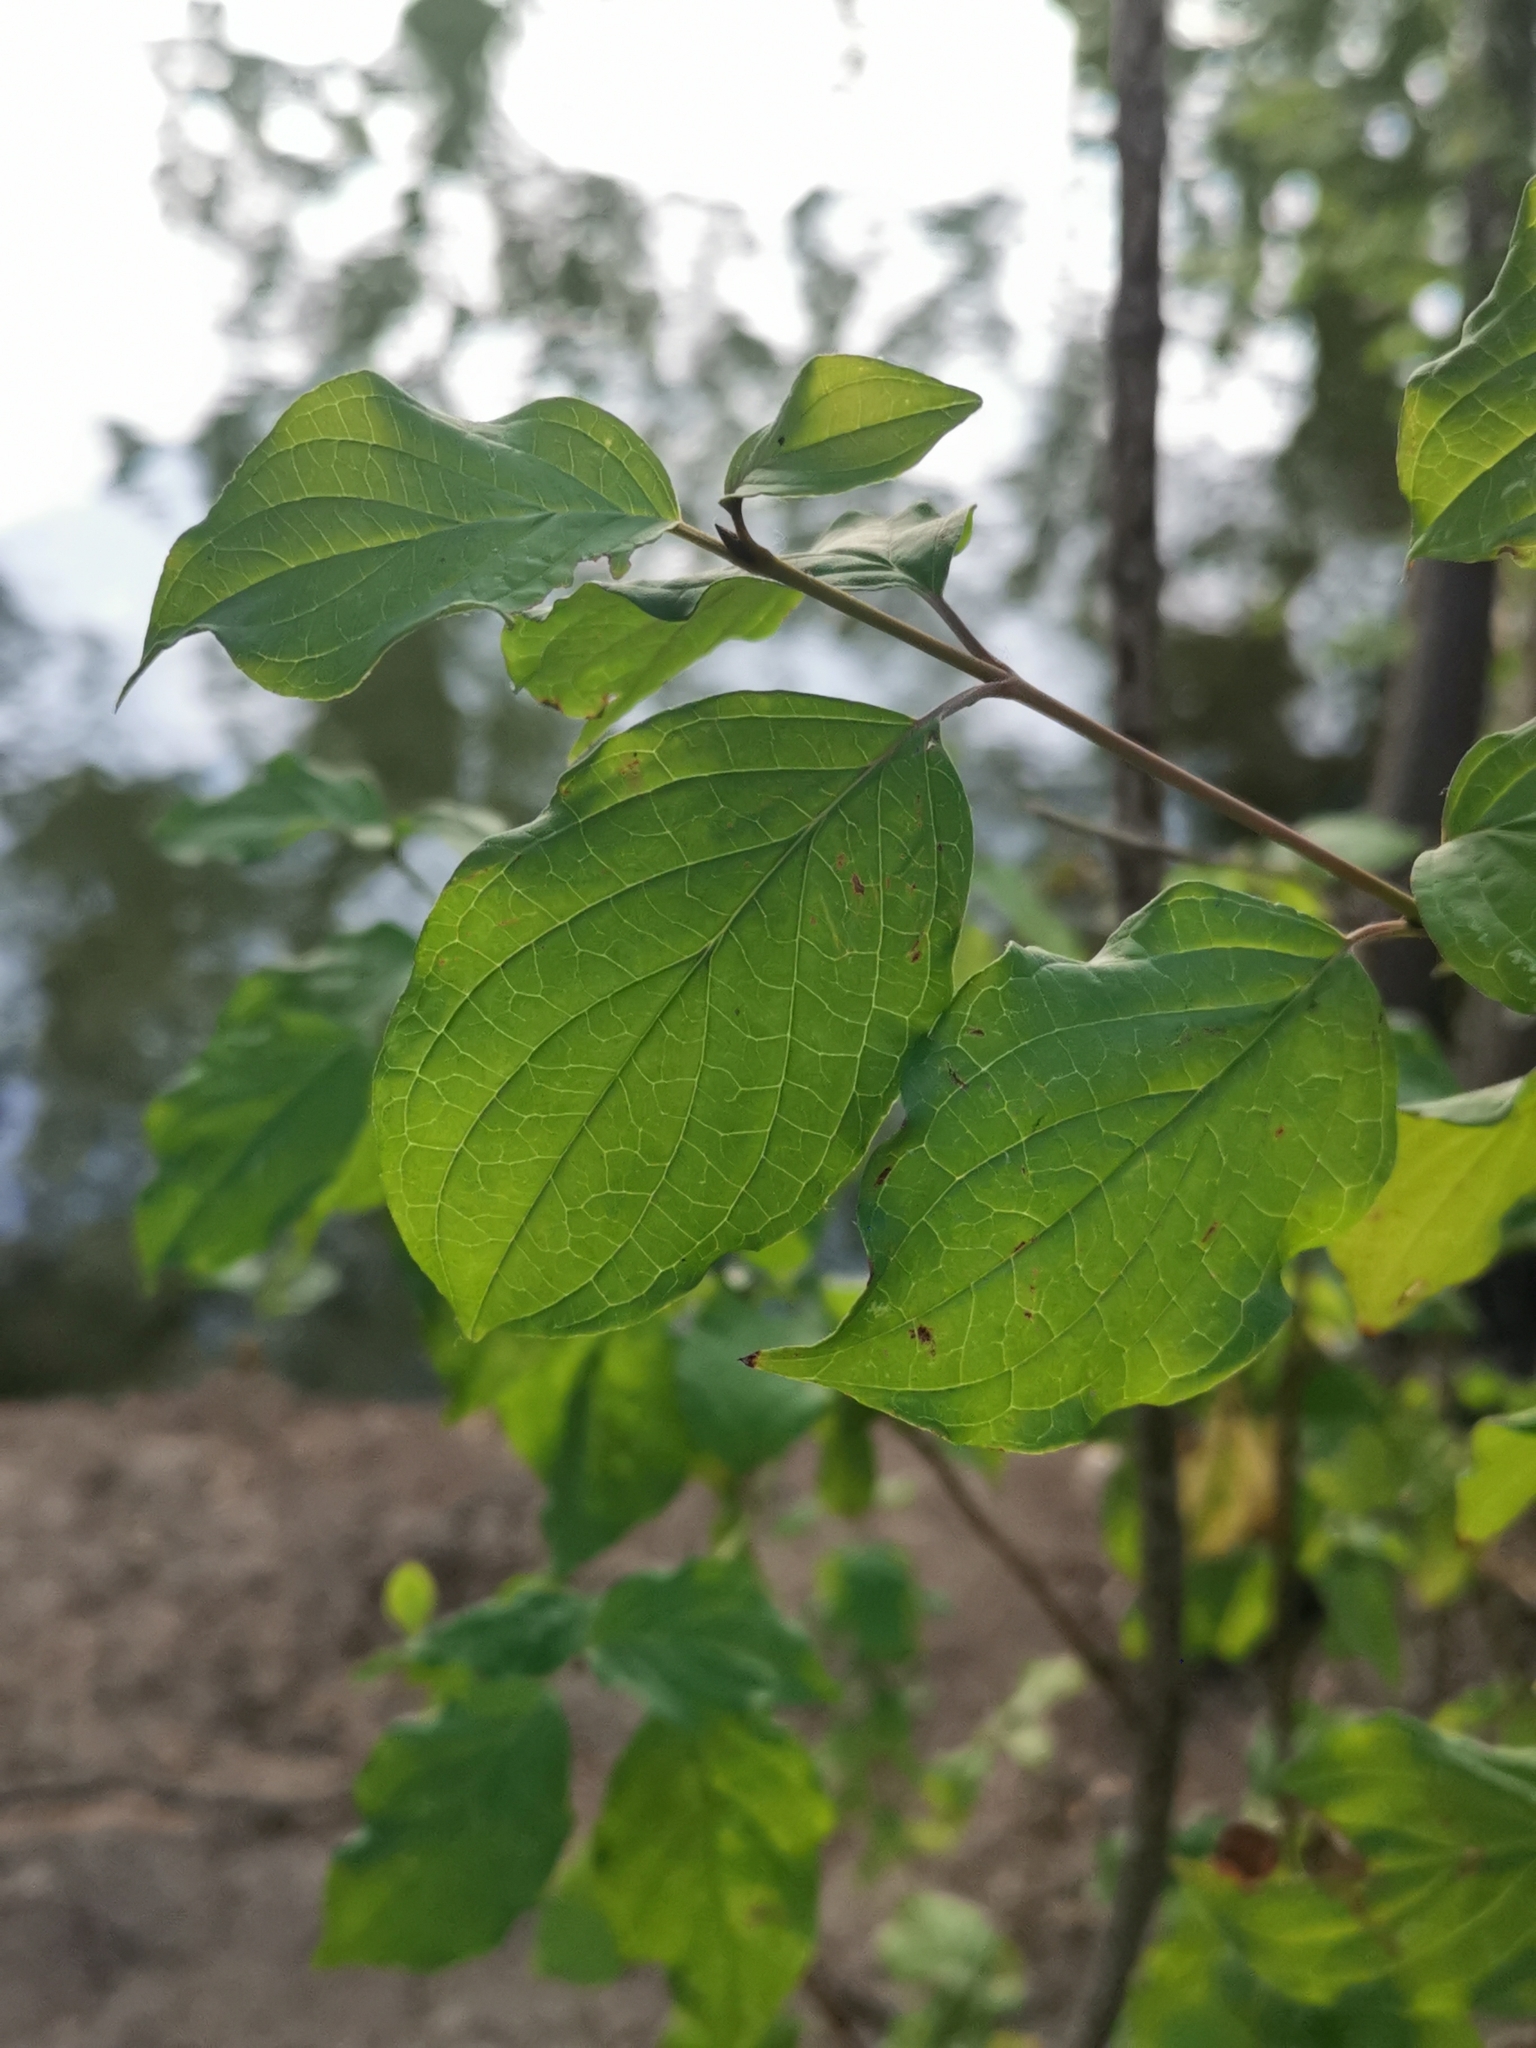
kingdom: Plantae
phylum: Tracheophyta
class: Magnoliopsida
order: Cornales
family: Cornaceae
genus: Cornus
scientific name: Cornus sanguinea
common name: Dogwood
